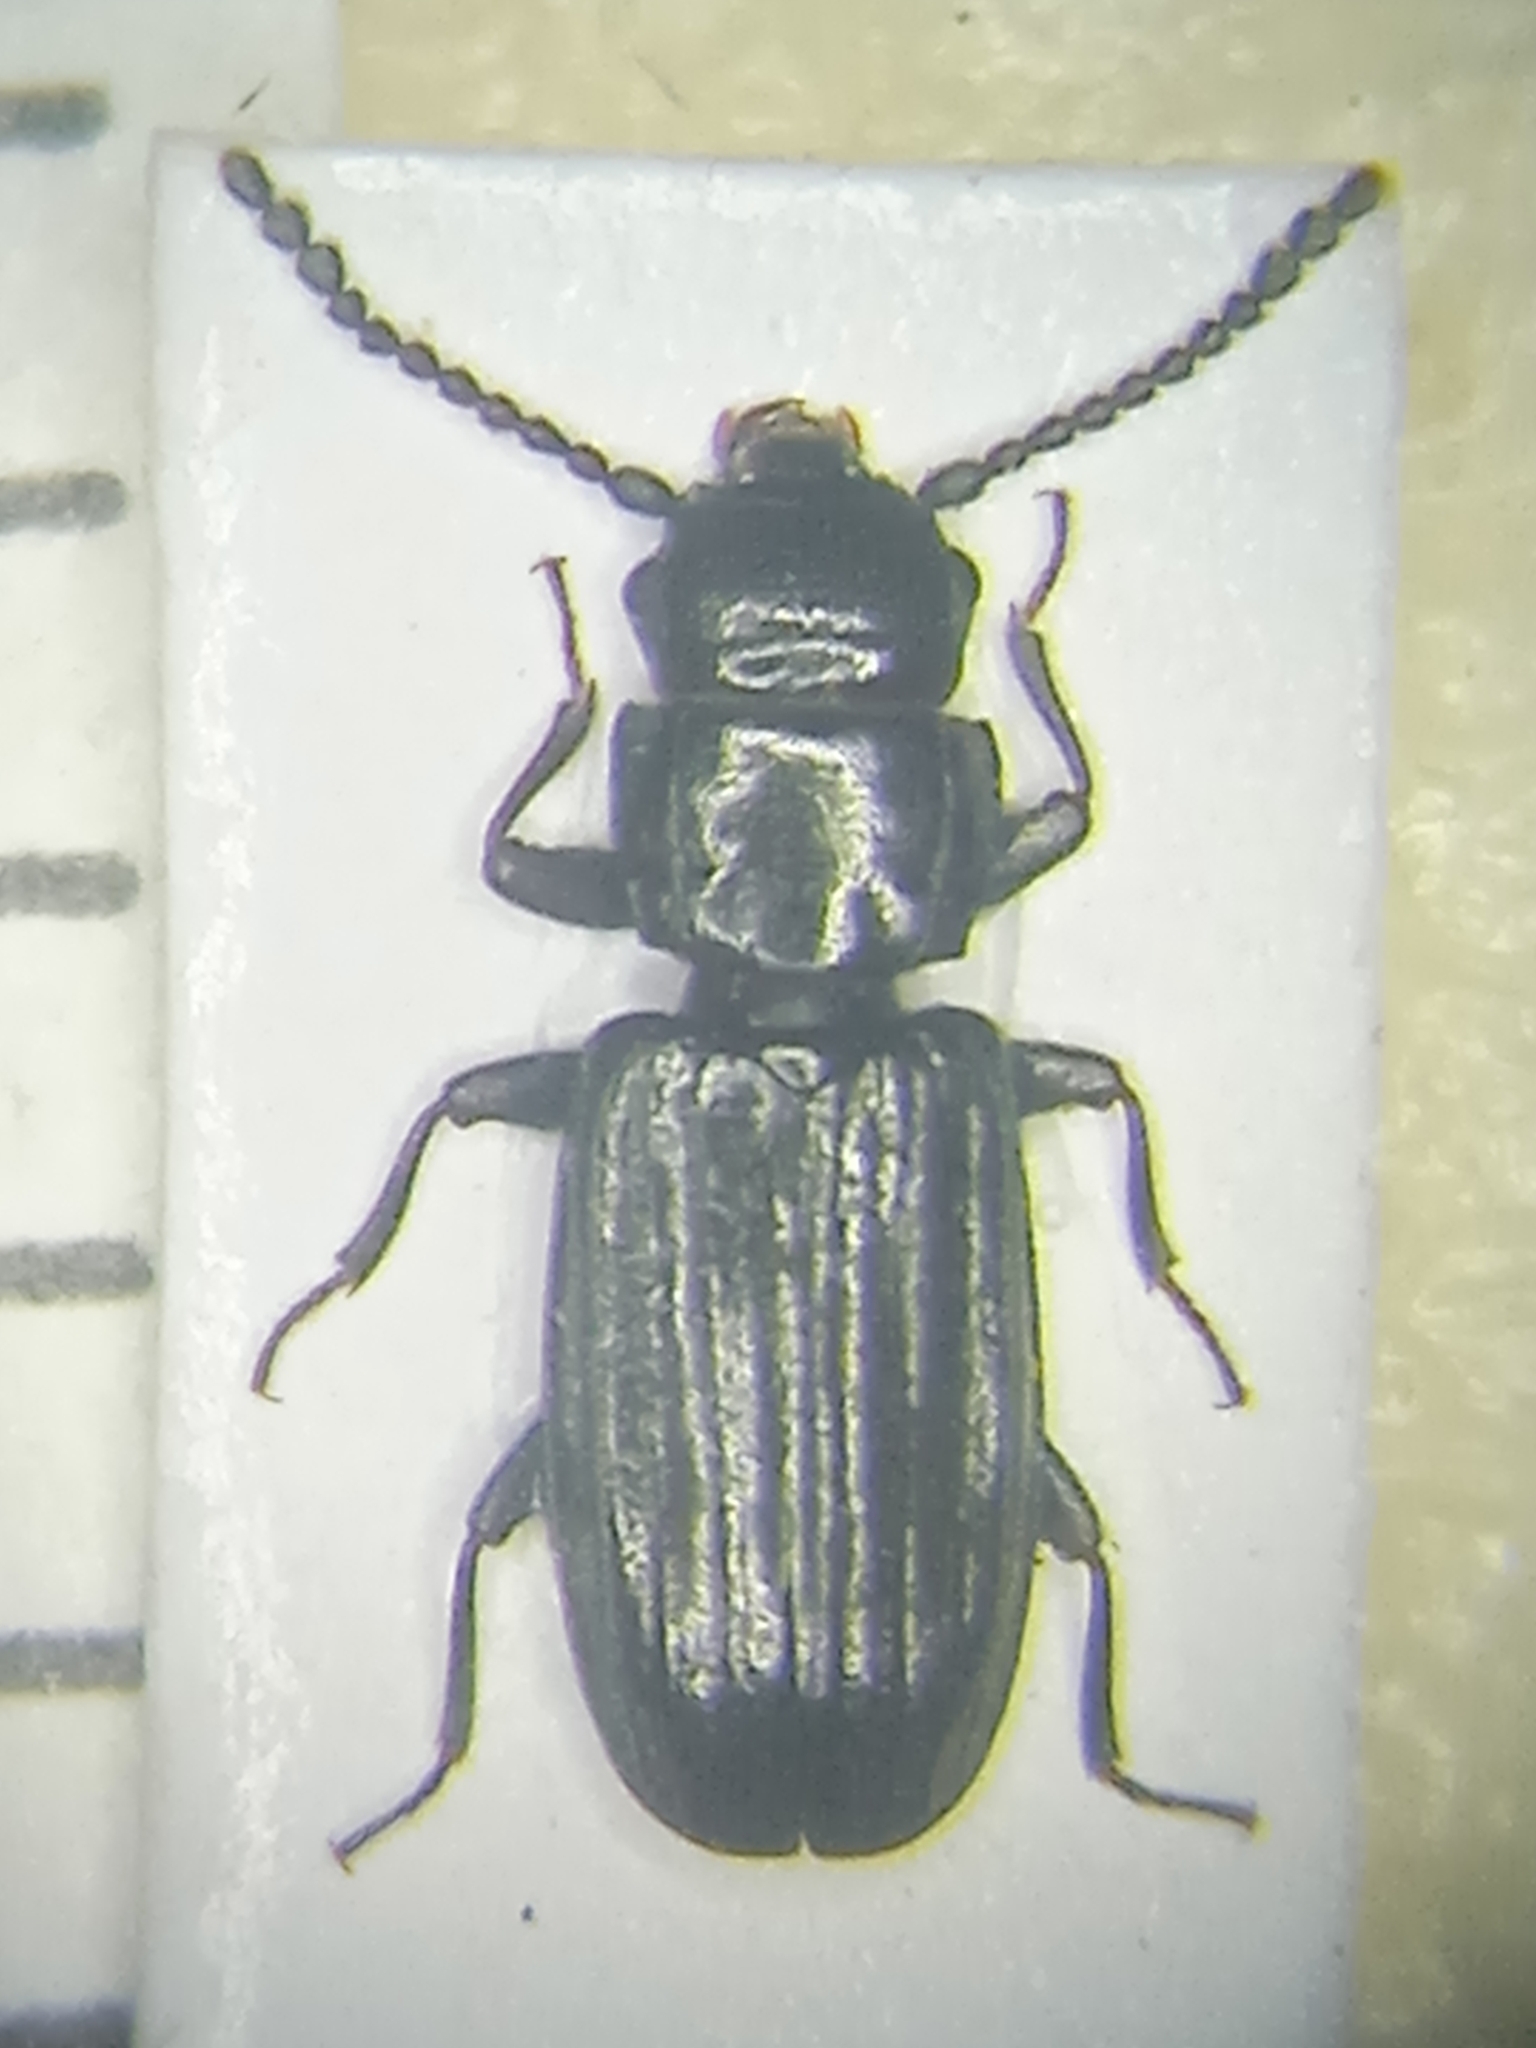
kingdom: Animalia
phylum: Arthropoda
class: Insecta
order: Coleoptera
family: Laemophloeidae
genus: Laemophloeus
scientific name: Laemophloeus muticus
